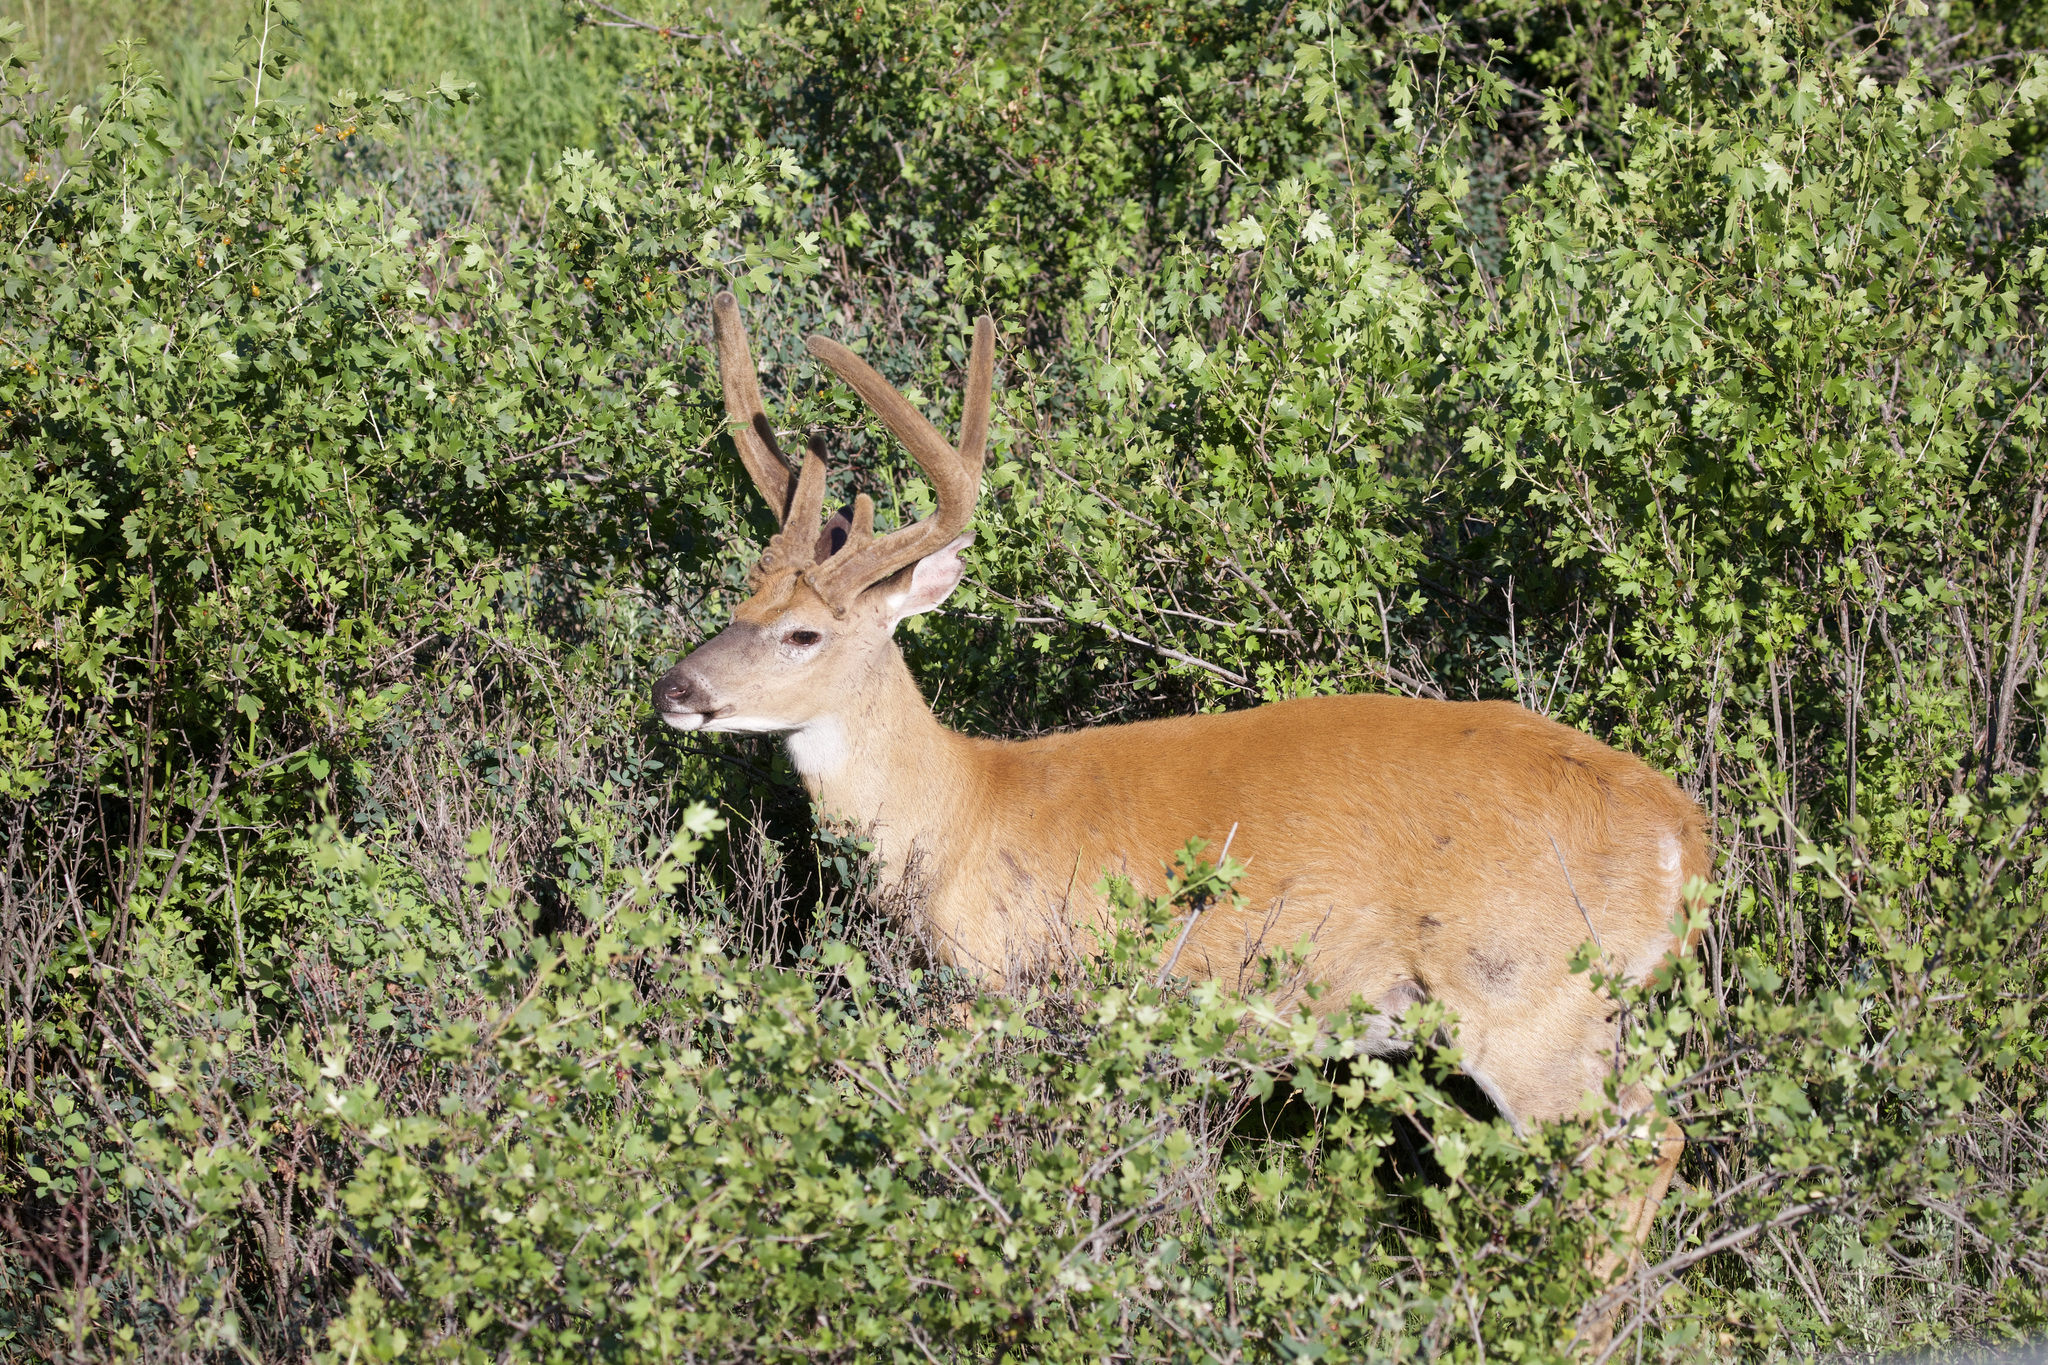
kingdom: Animalia
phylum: Chordata
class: Mammalia
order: Artiodactyla
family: Cervidae
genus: Odocoileus
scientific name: Odocoileus virginianus
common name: White-tailed deer
